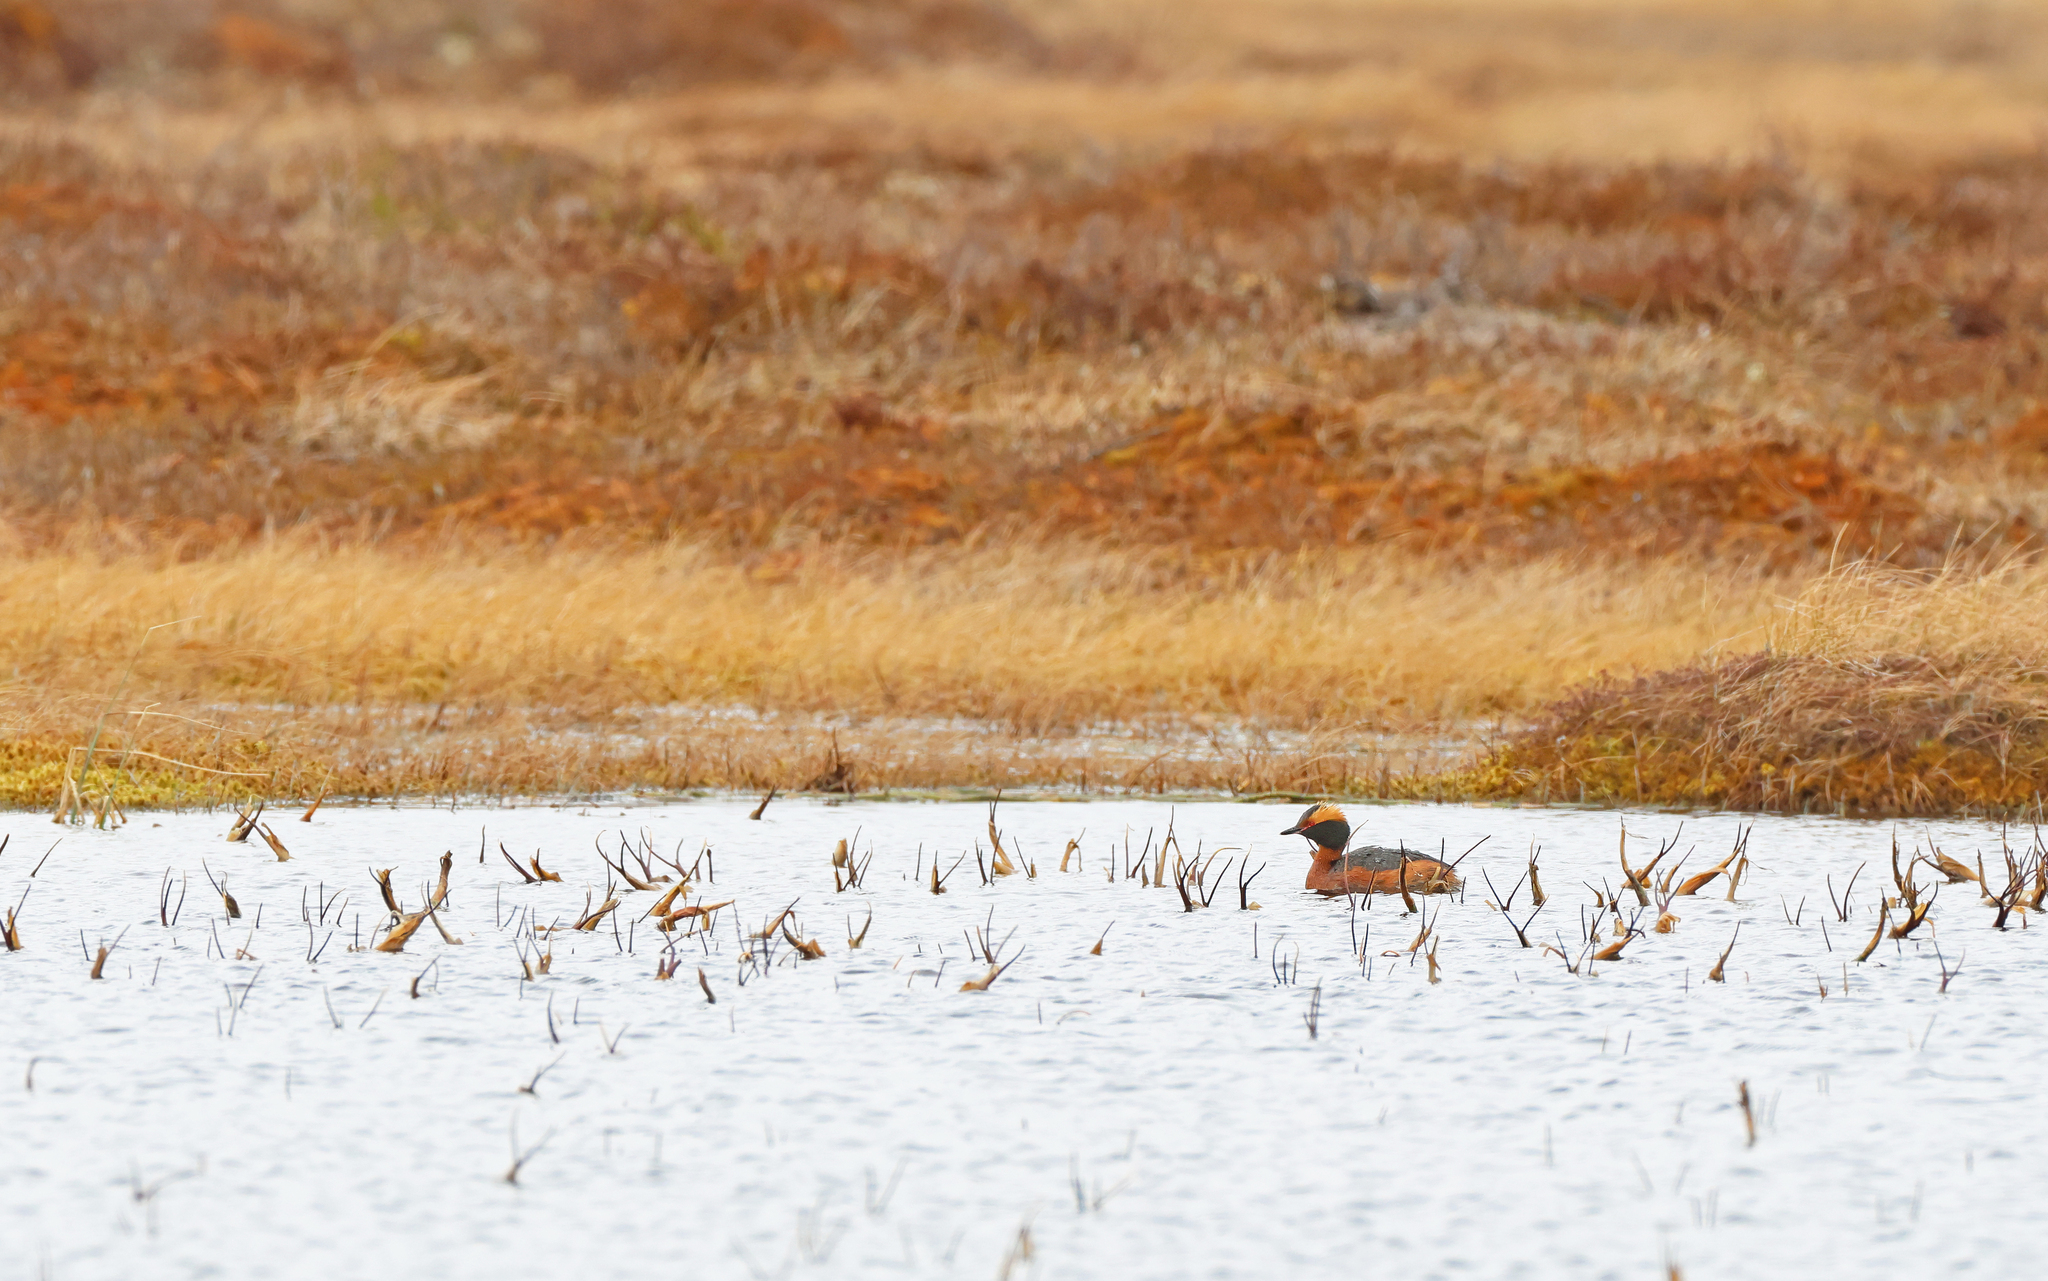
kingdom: Animalia
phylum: Chordata
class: Aves
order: Podicipediformes
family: Podicipedidae
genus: Podiceps
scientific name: Podiceps auritus
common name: Horned grebe
